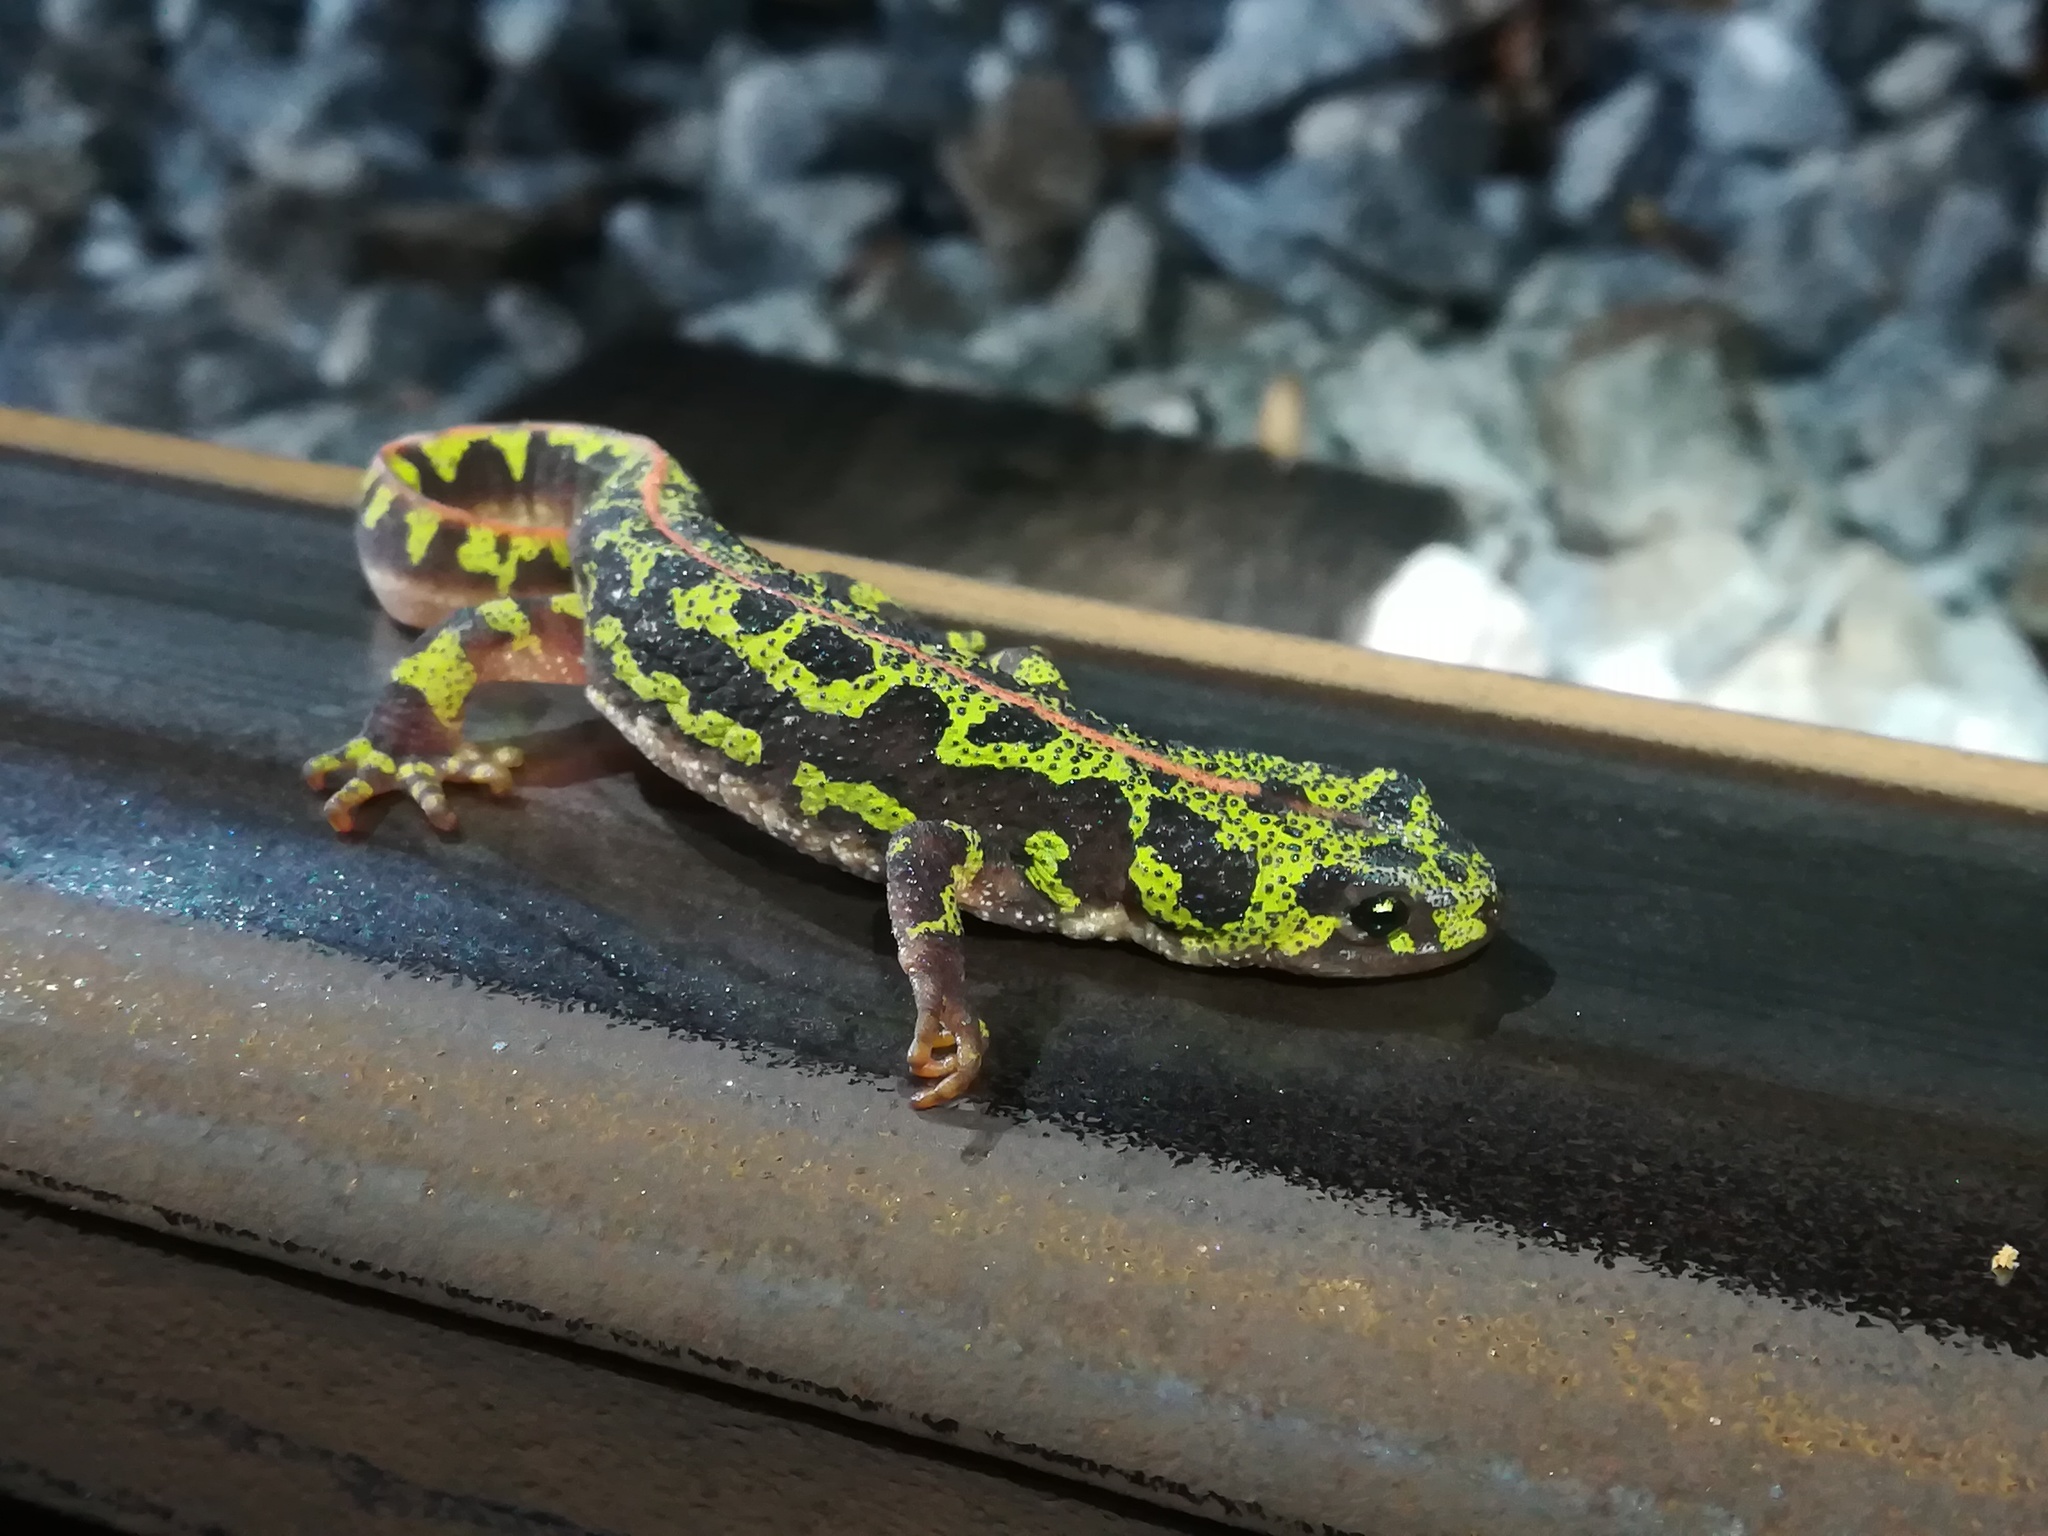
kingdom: Animalia
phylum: Chordata
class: Amphibia
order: Caudata
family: Salamandridae
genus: Triturus
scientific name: Triturus marmoratus
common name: Marbled newt
